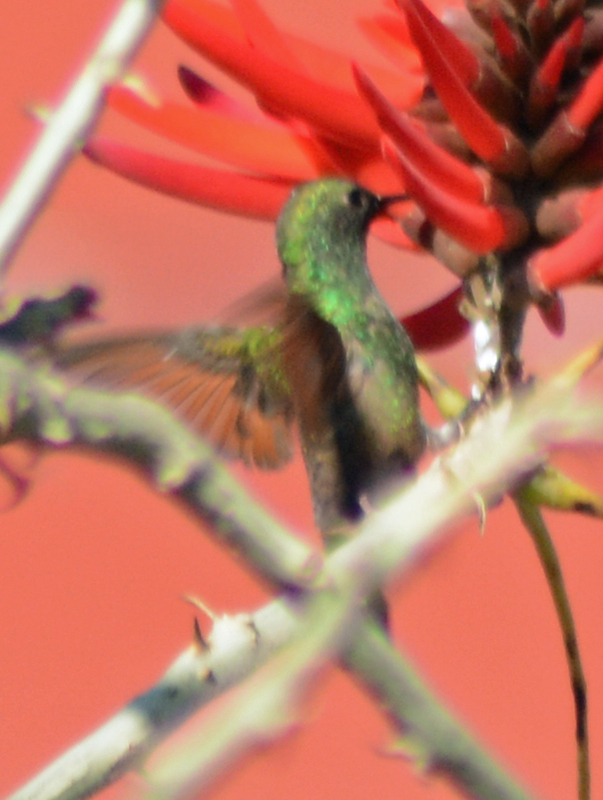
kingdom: Animalia
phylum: Chordata
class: Aves
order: Apodiformes
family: Trochilidae
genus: Saucerottia
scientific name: Saucerottia beryllina
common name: Berylline hummingbird
